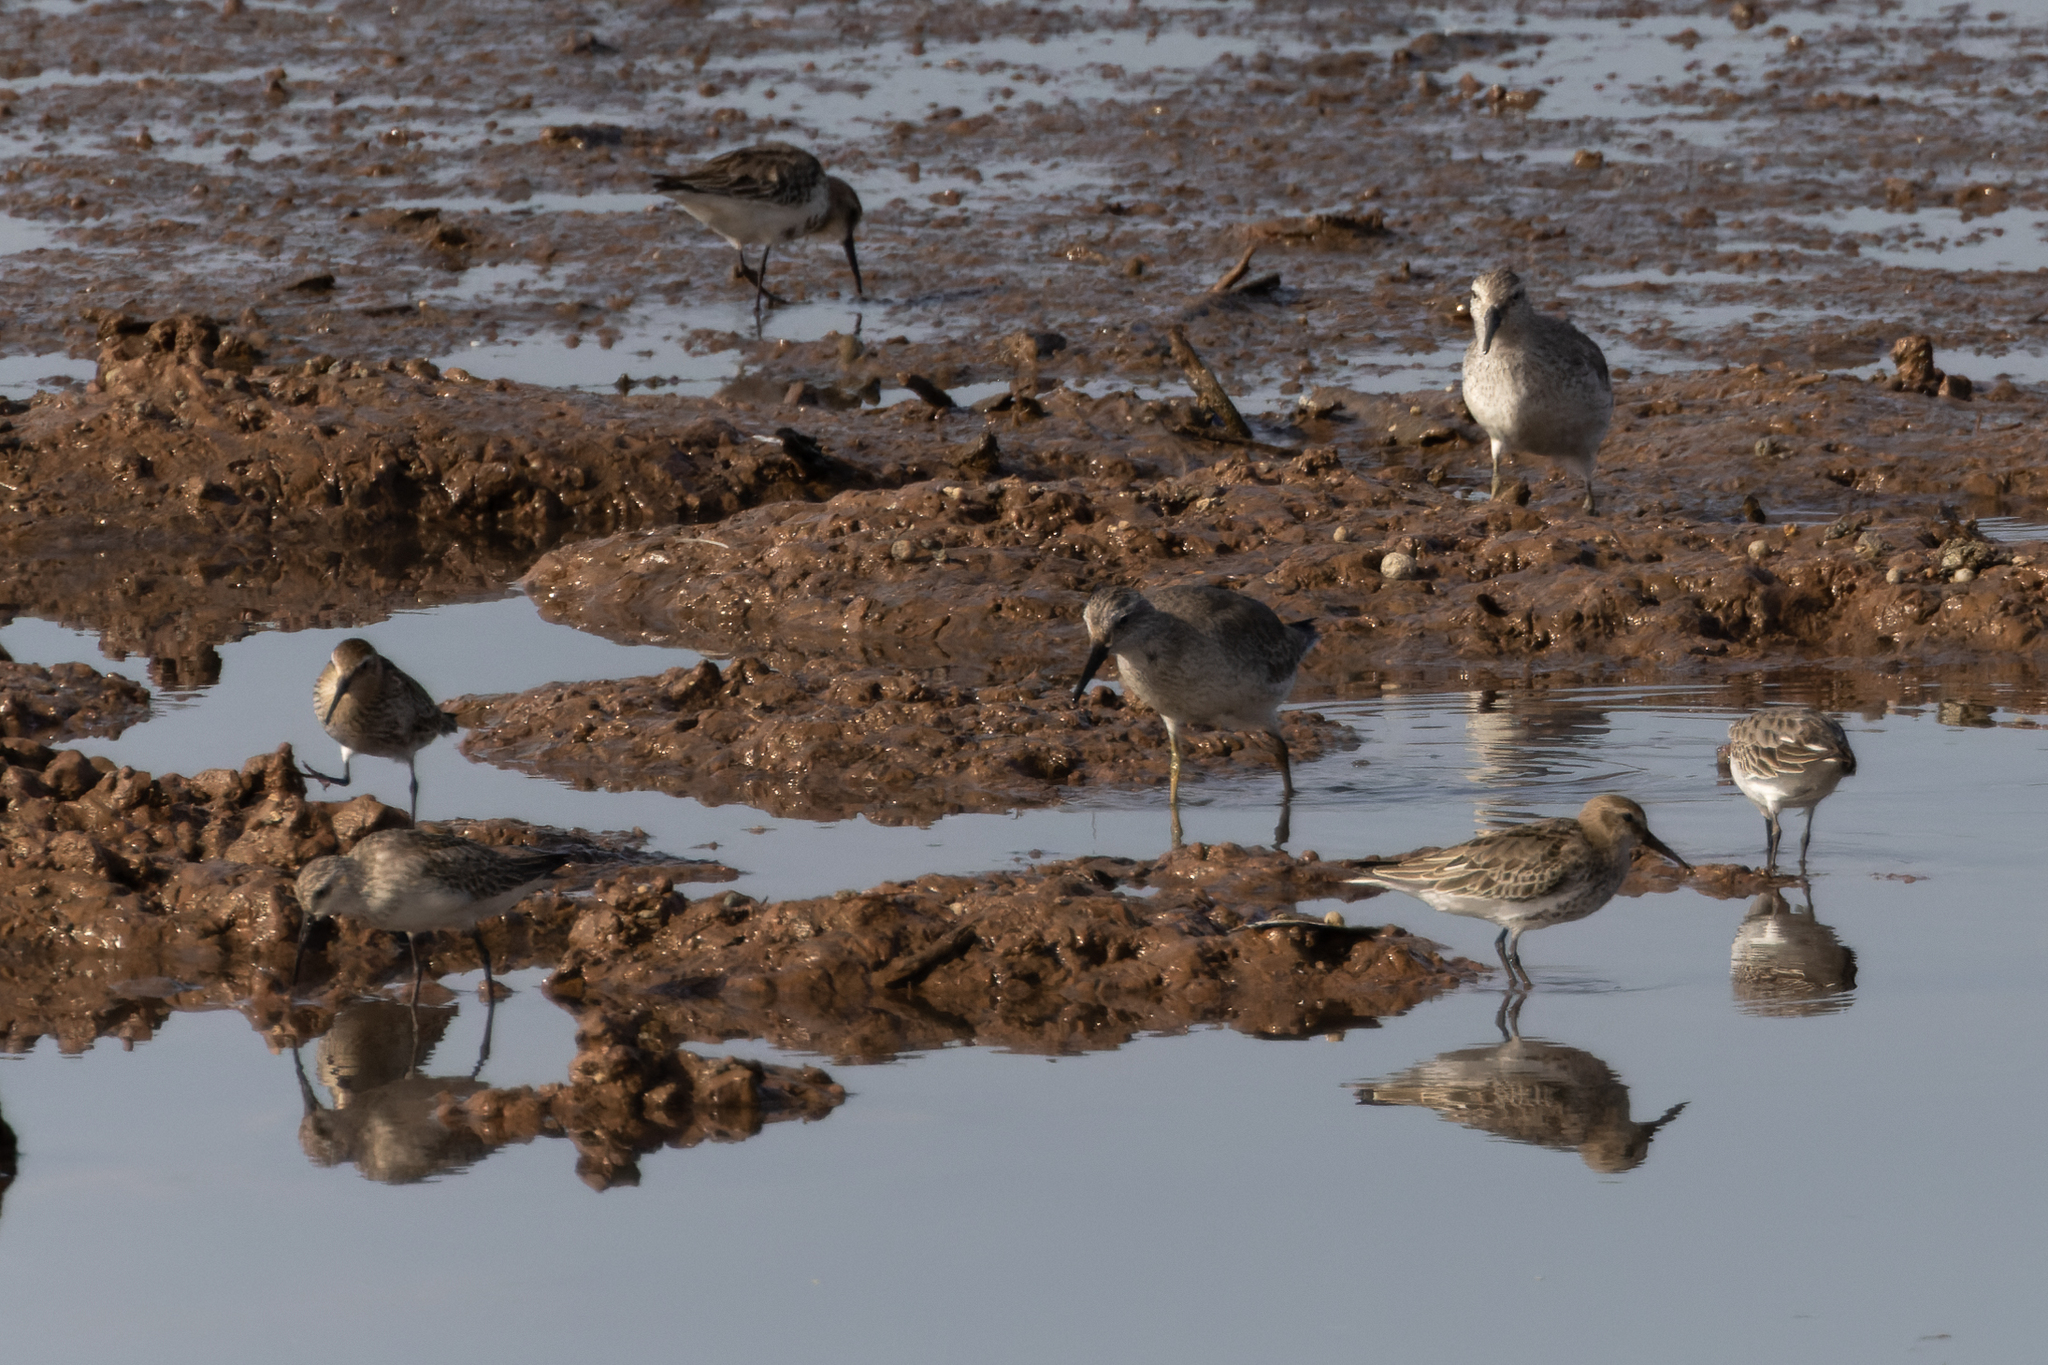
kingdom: Animalia
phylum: Chordata
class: Aves
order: Charadriiformes
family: Scolopacidae
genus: Calidris
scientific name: Calidris alpina
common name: Dunlin
